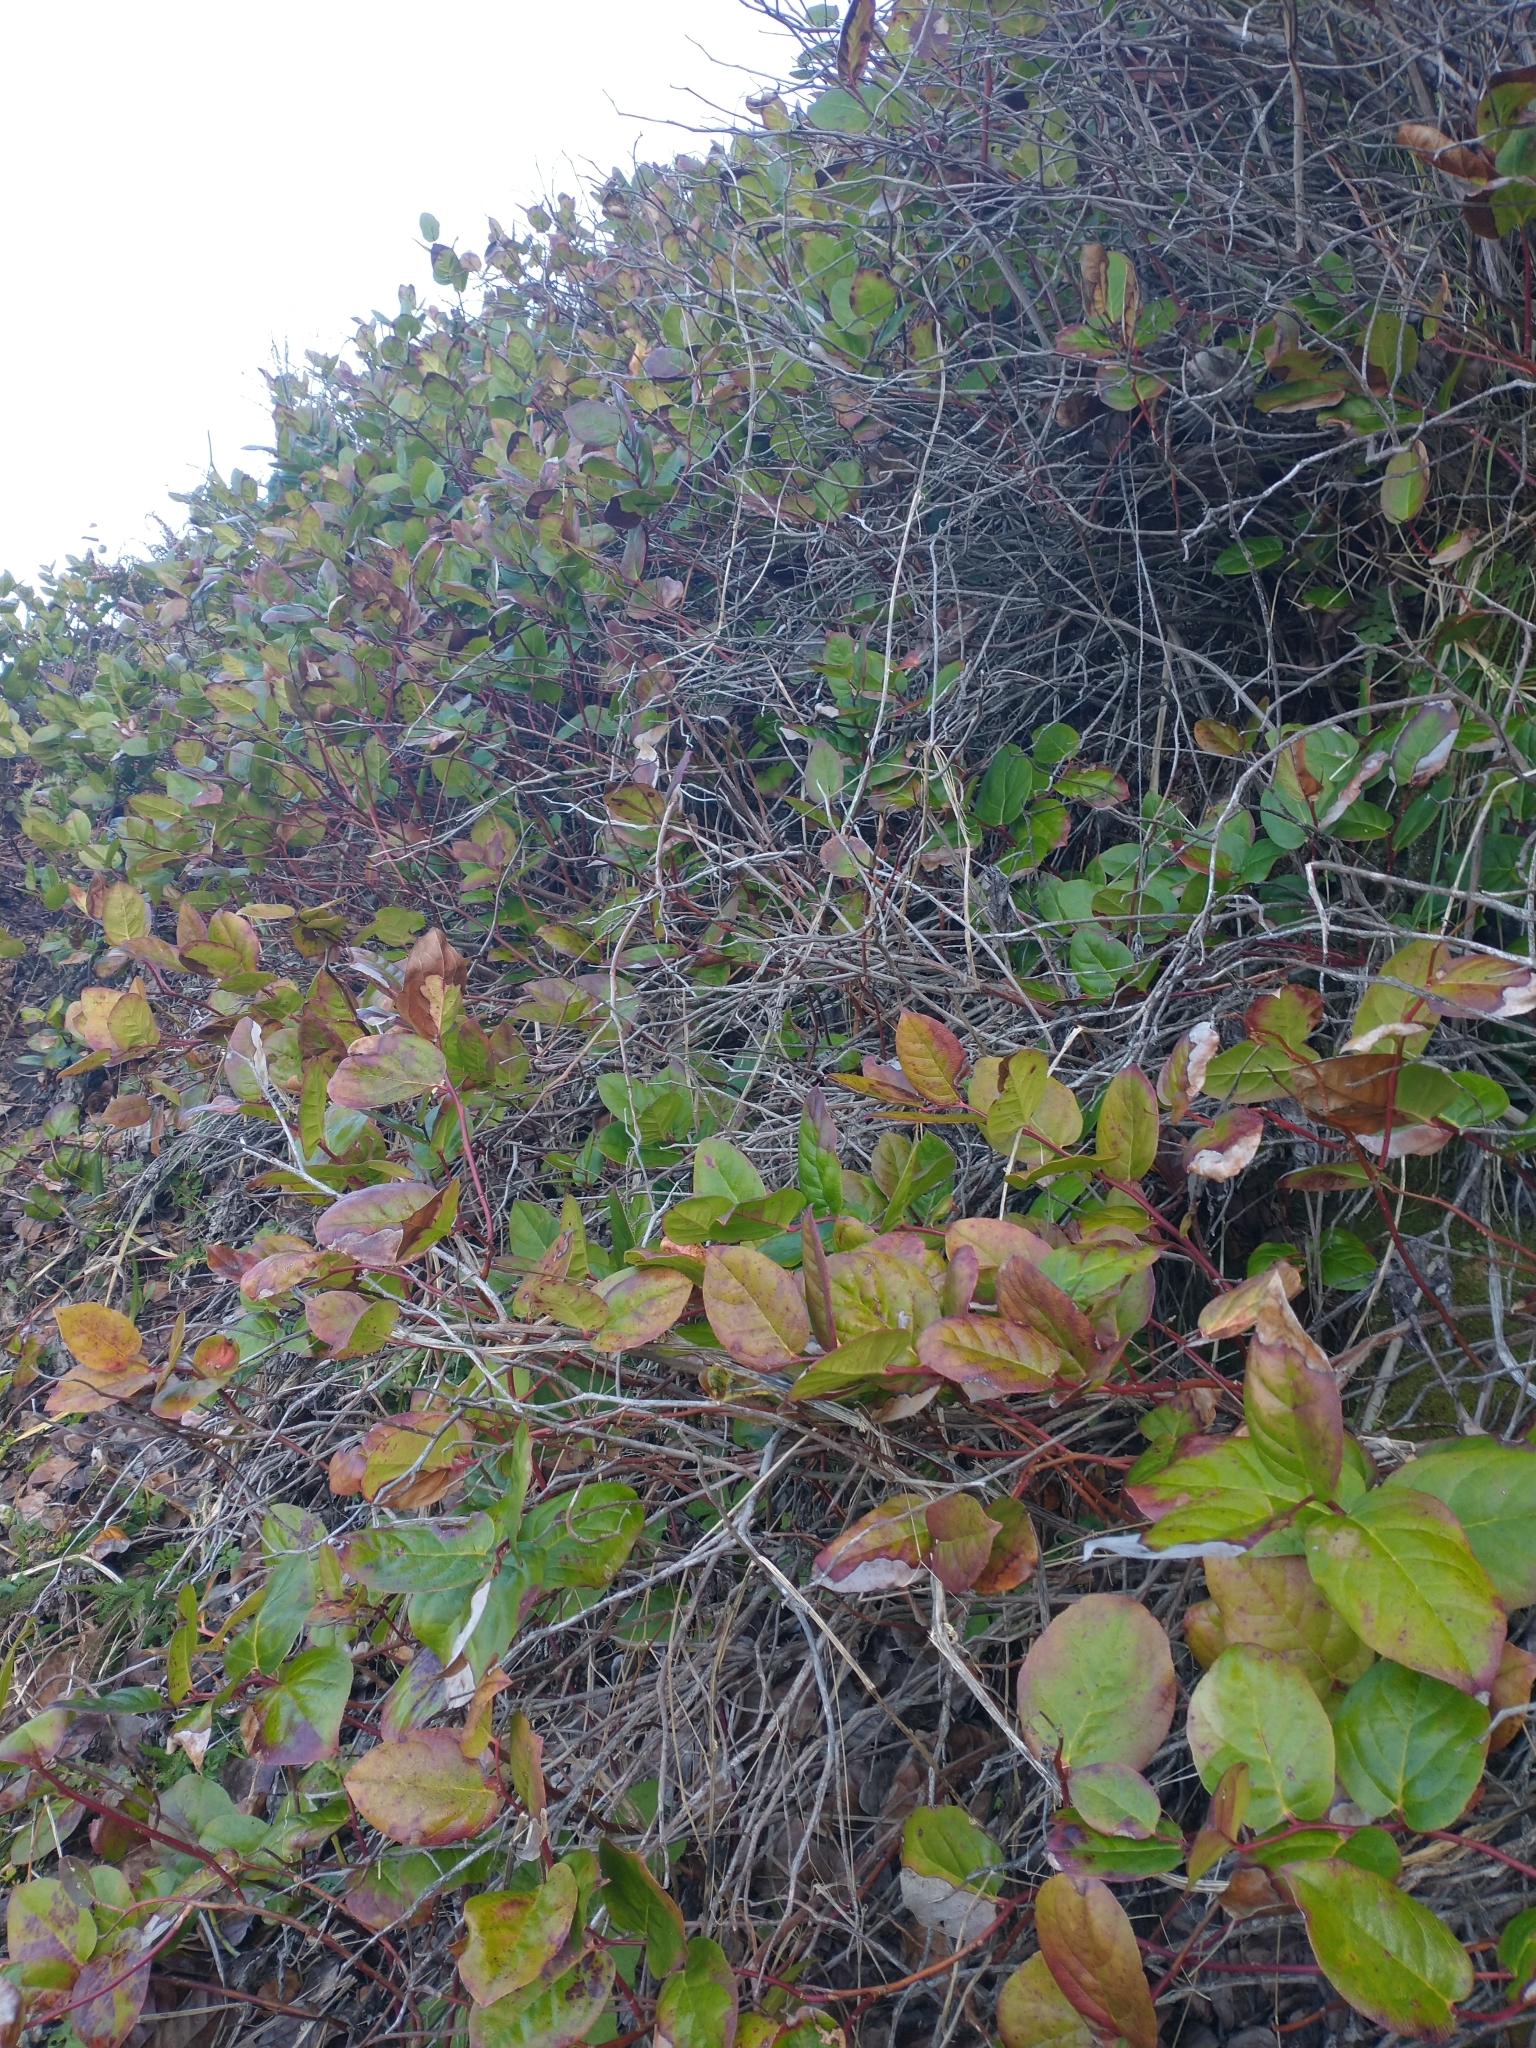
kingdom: Plantae
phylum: Tracheophyta
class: Magnoliopsida
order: Ericales
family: Ericaceae
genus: Gaultheria
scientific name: Gaultheria shallon
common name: Shallon
